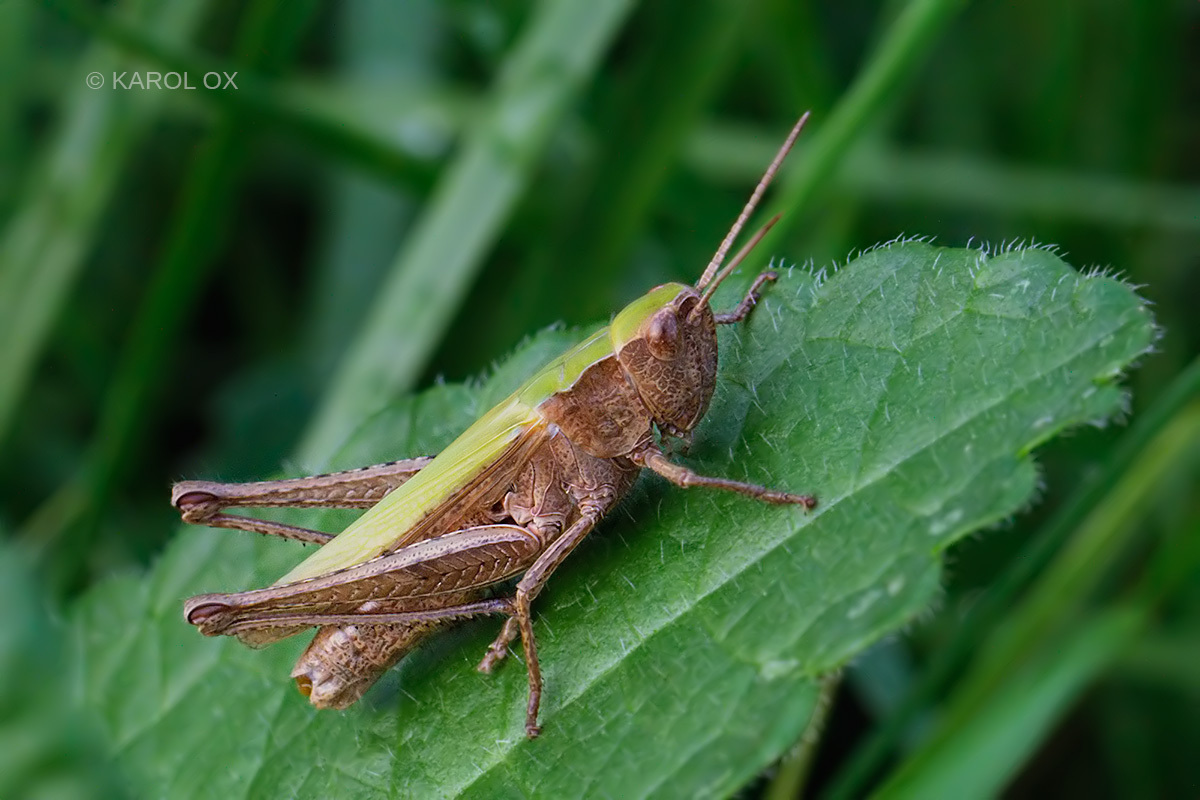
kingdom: Animalia
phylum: Arthropoda
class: Insecta
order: Orthoptera
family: Acrididae
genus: Chorthippus
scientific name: Chorthippus dorsatus
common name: Steppe grasshopper
